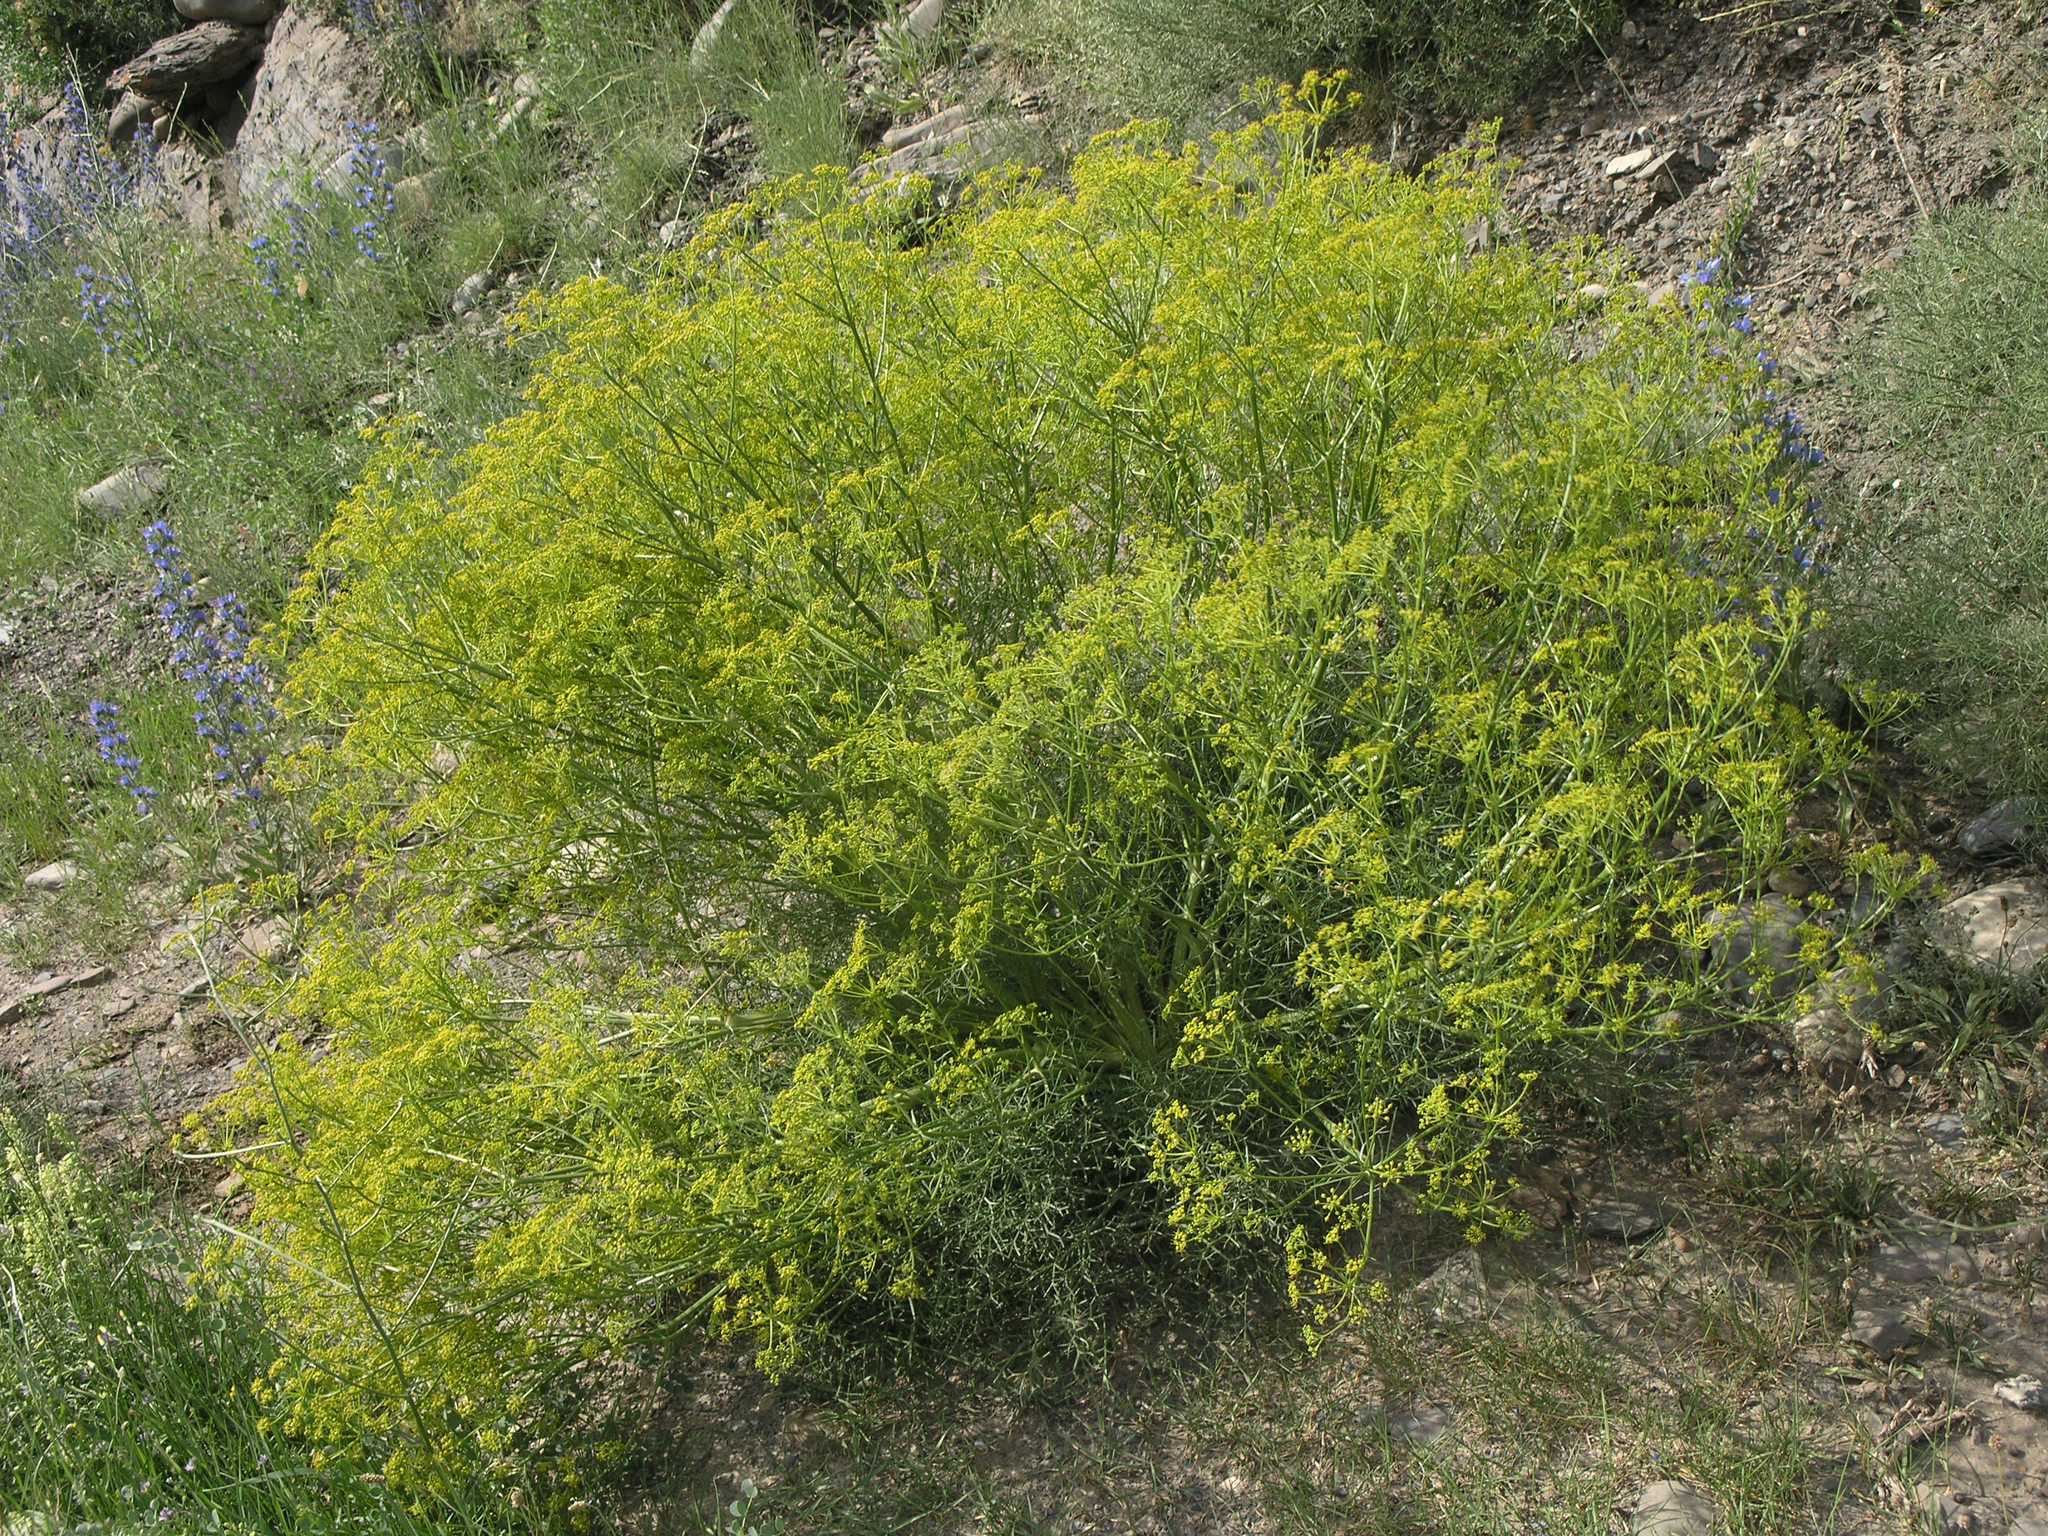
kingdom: Plantae
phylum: Tracheophyta
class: Magnoliopsida
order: Apiales
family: Apiaceae
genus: Bilacunaria
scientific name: Bilacunaria microcarpa
